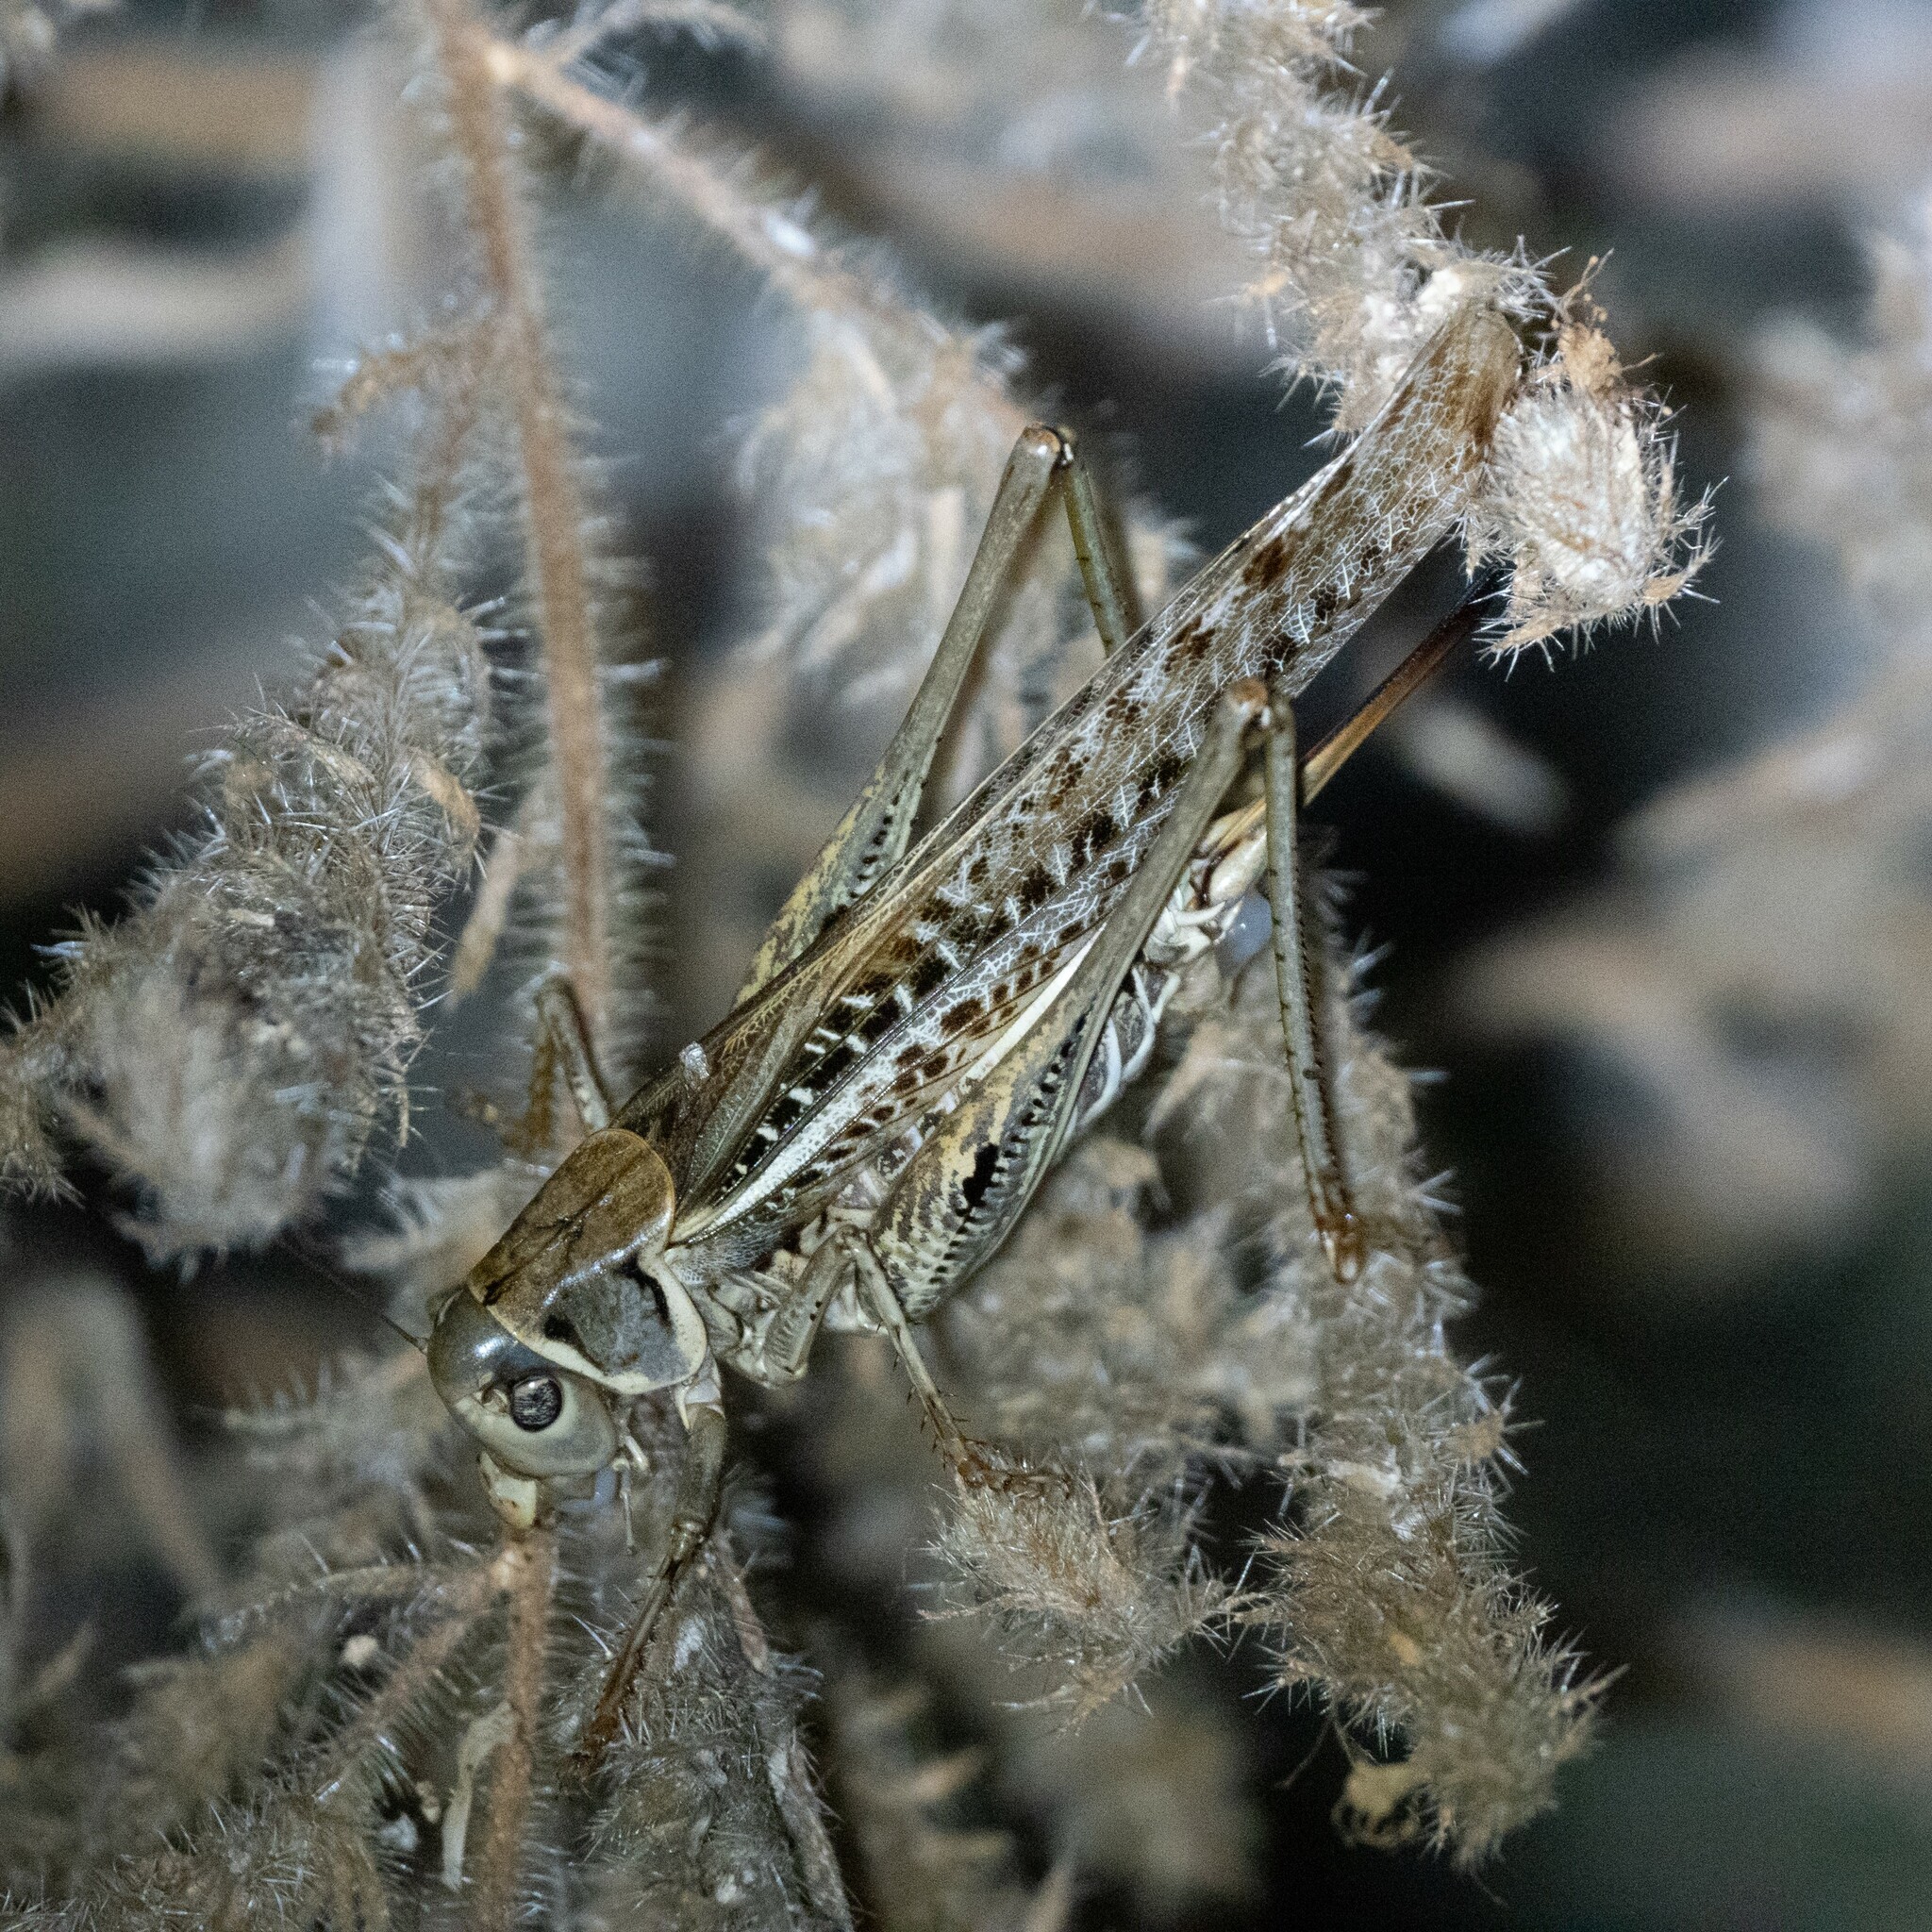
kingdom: Animalia
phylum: Arthropoda
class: Insecta
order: Orthoptera
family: Tettigoniidae
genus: Decticus
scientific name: Decticus albifrons
